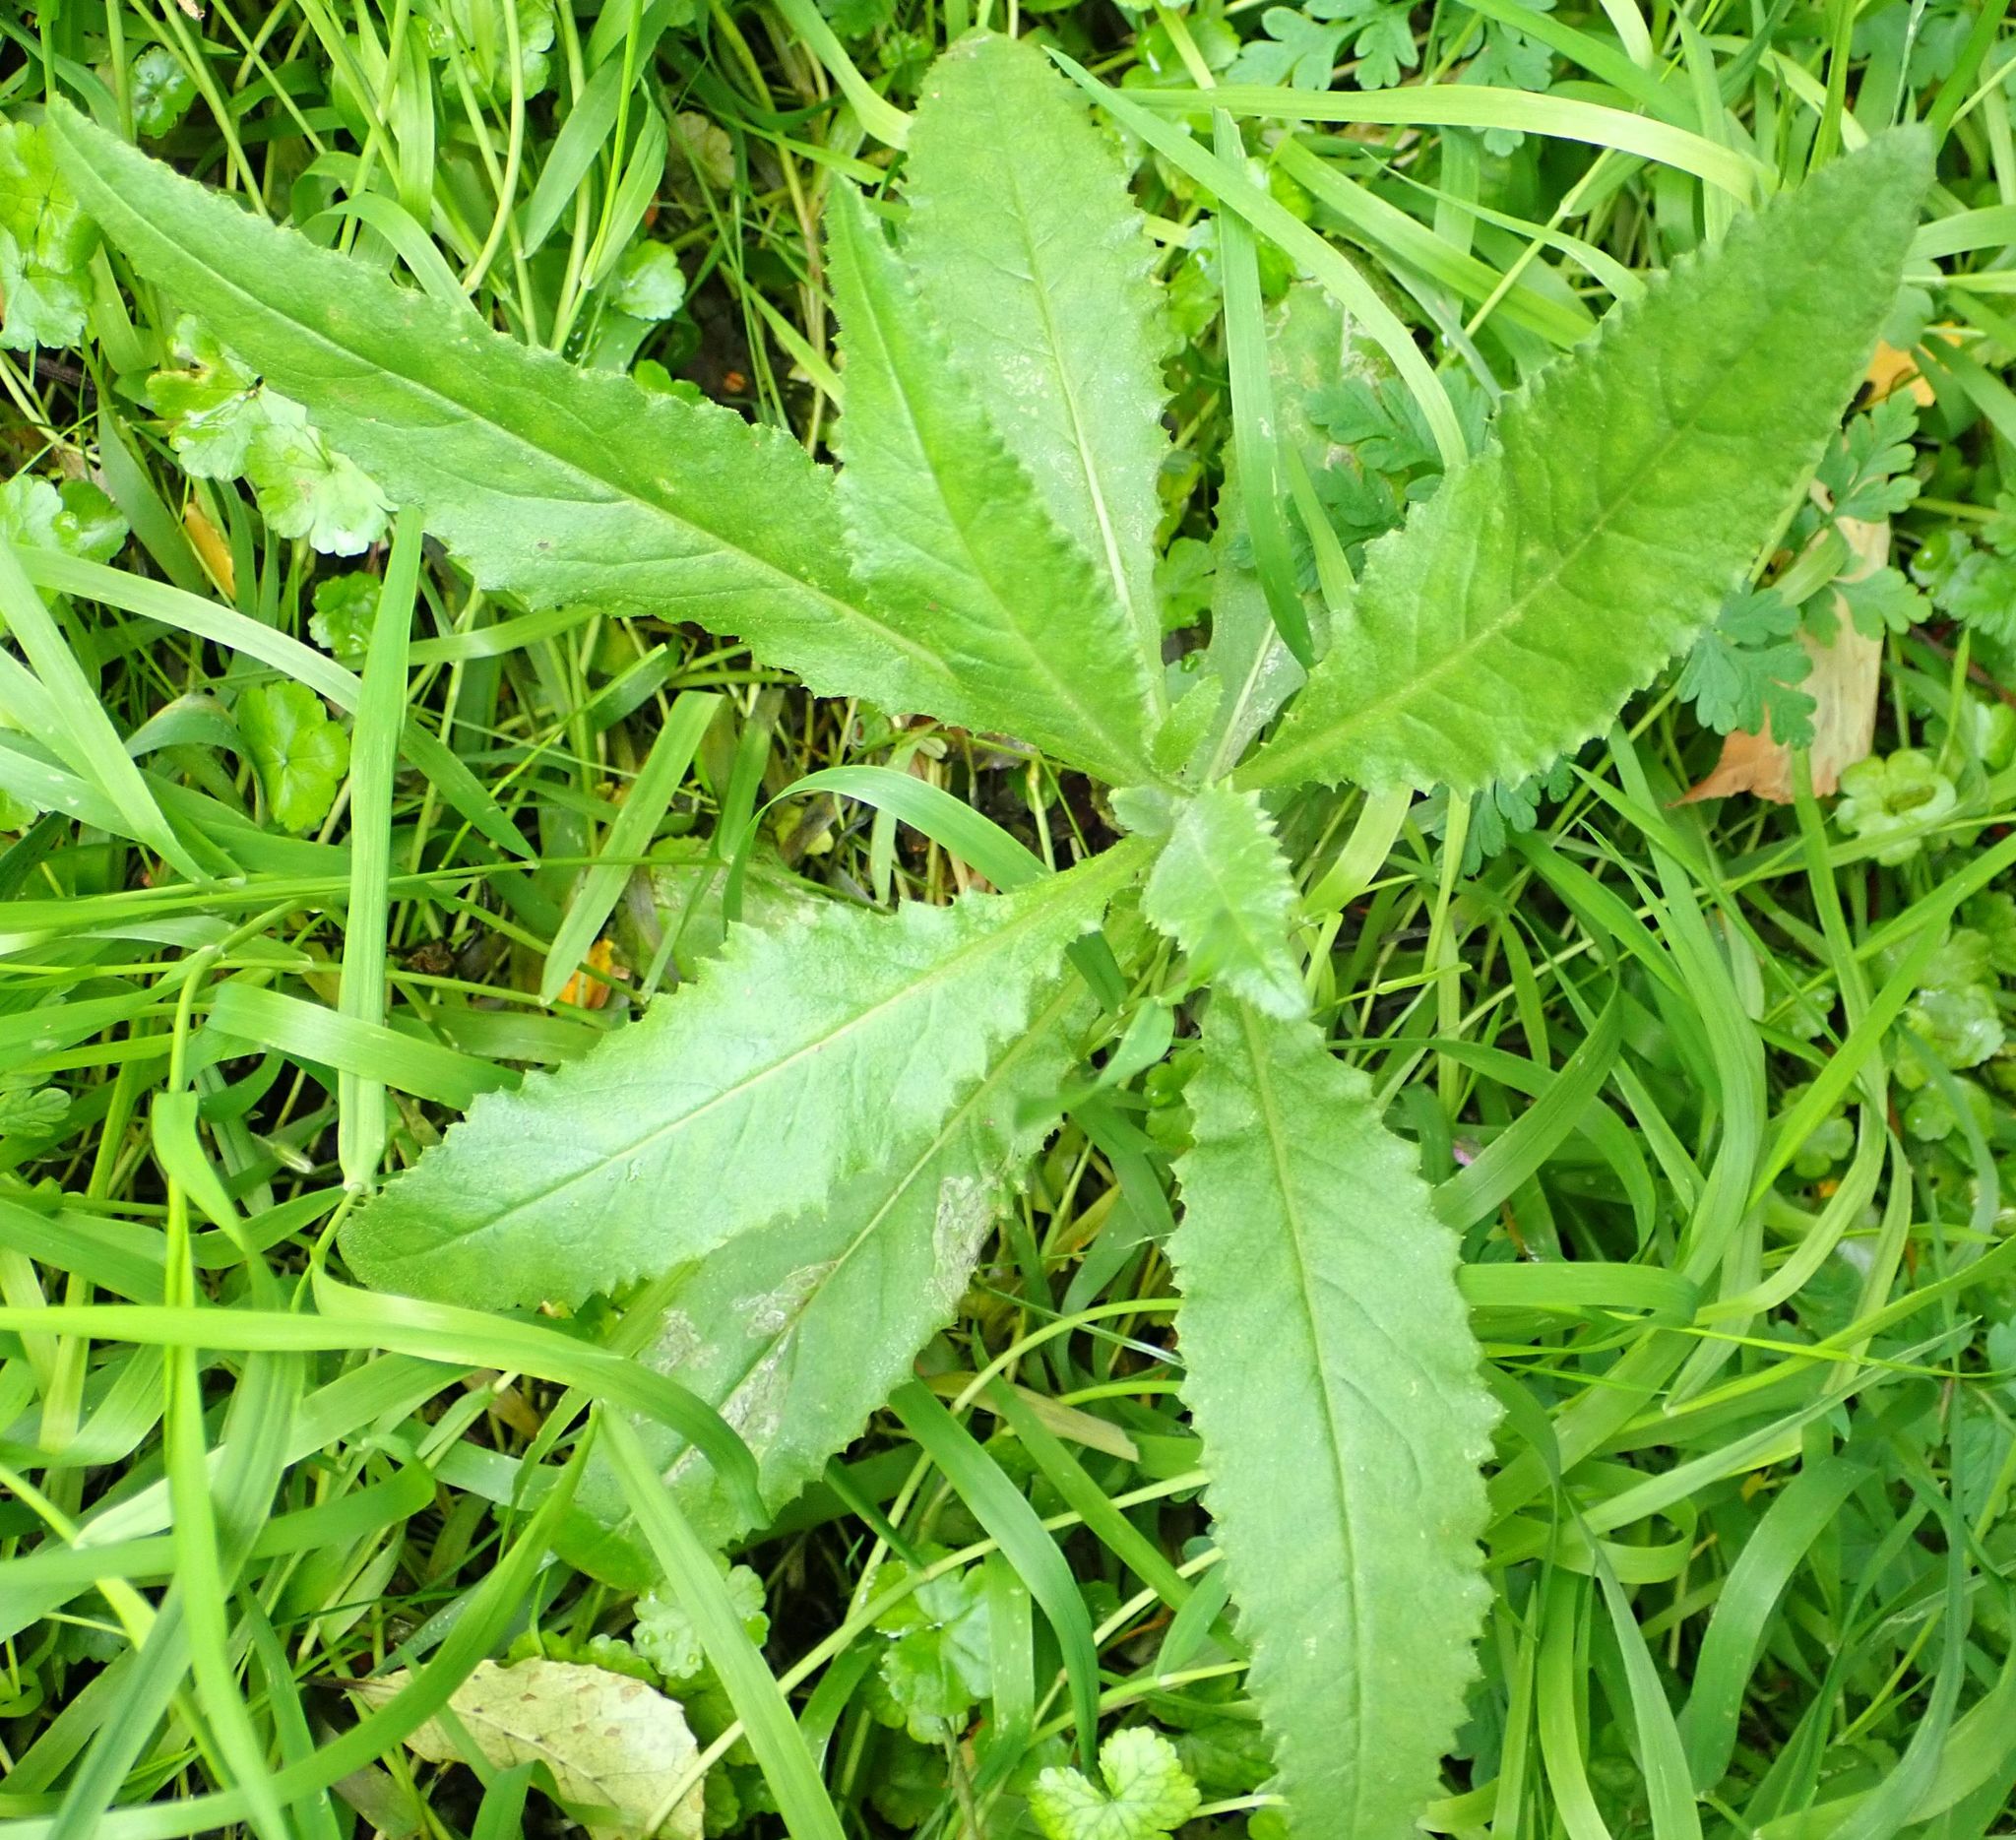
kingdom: Plantae
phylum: Tracheophyta
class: Magnoliopsida
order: Asterales
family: Asteraceae
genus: Senecio
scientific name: Senecio minimus
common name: Toothed fireweed
